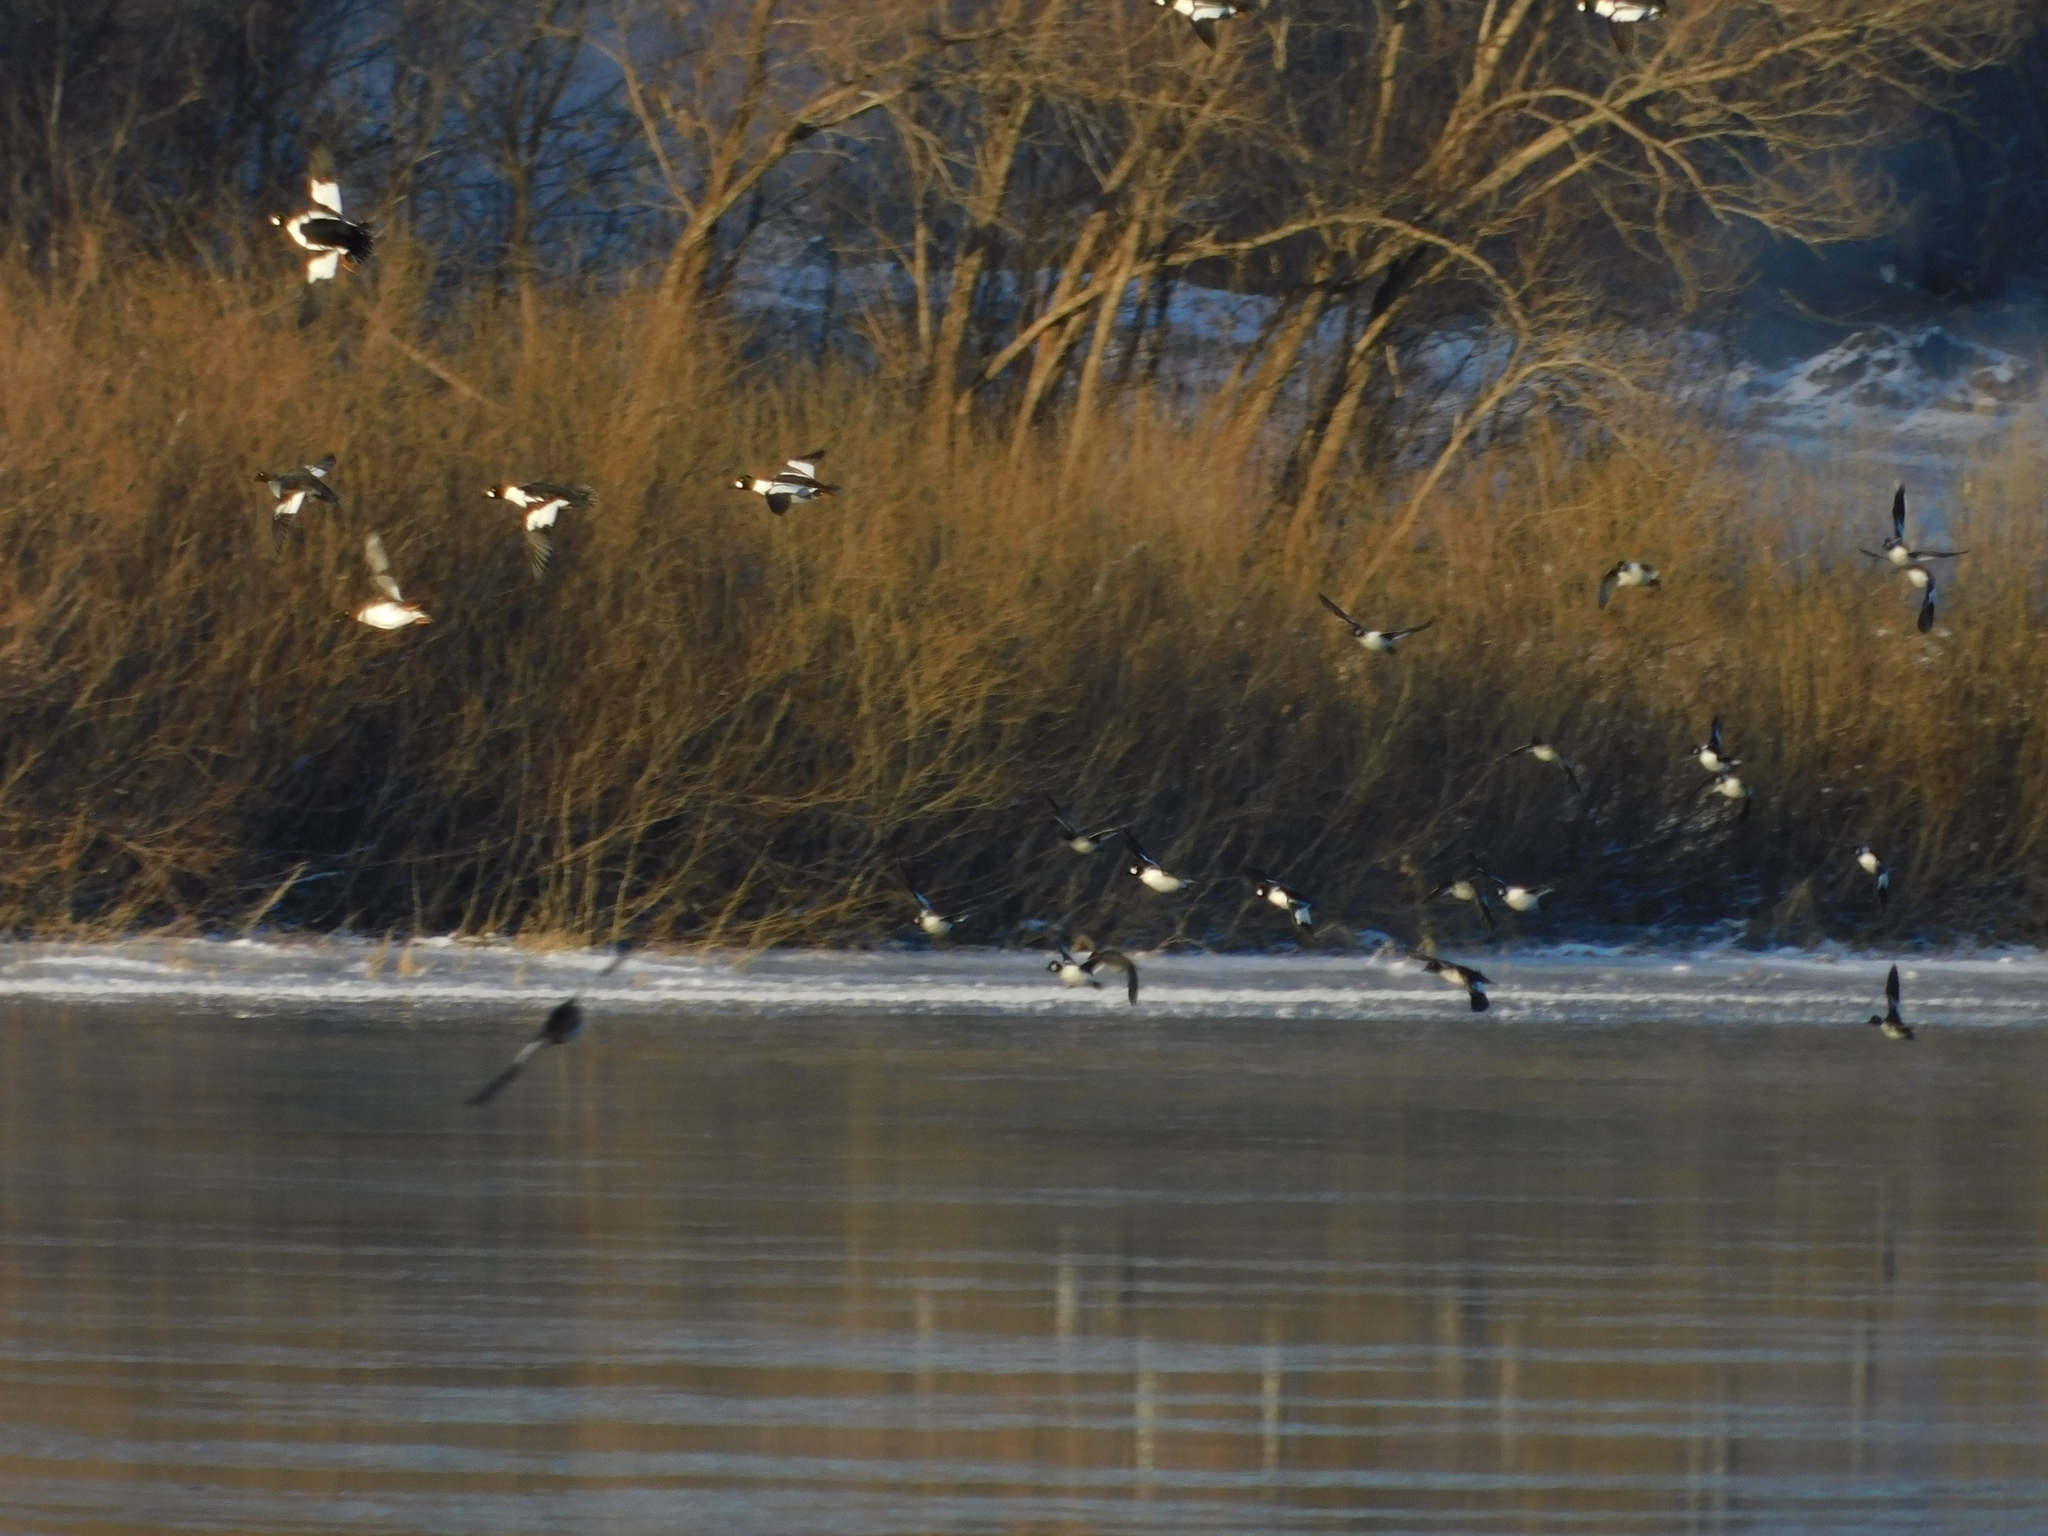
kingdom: Animalia
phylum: Chordata
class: Aves
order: Anseriformes
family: Anatidae
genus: Bucephala
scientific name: Bucephala clangula
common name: Common goldeneye
